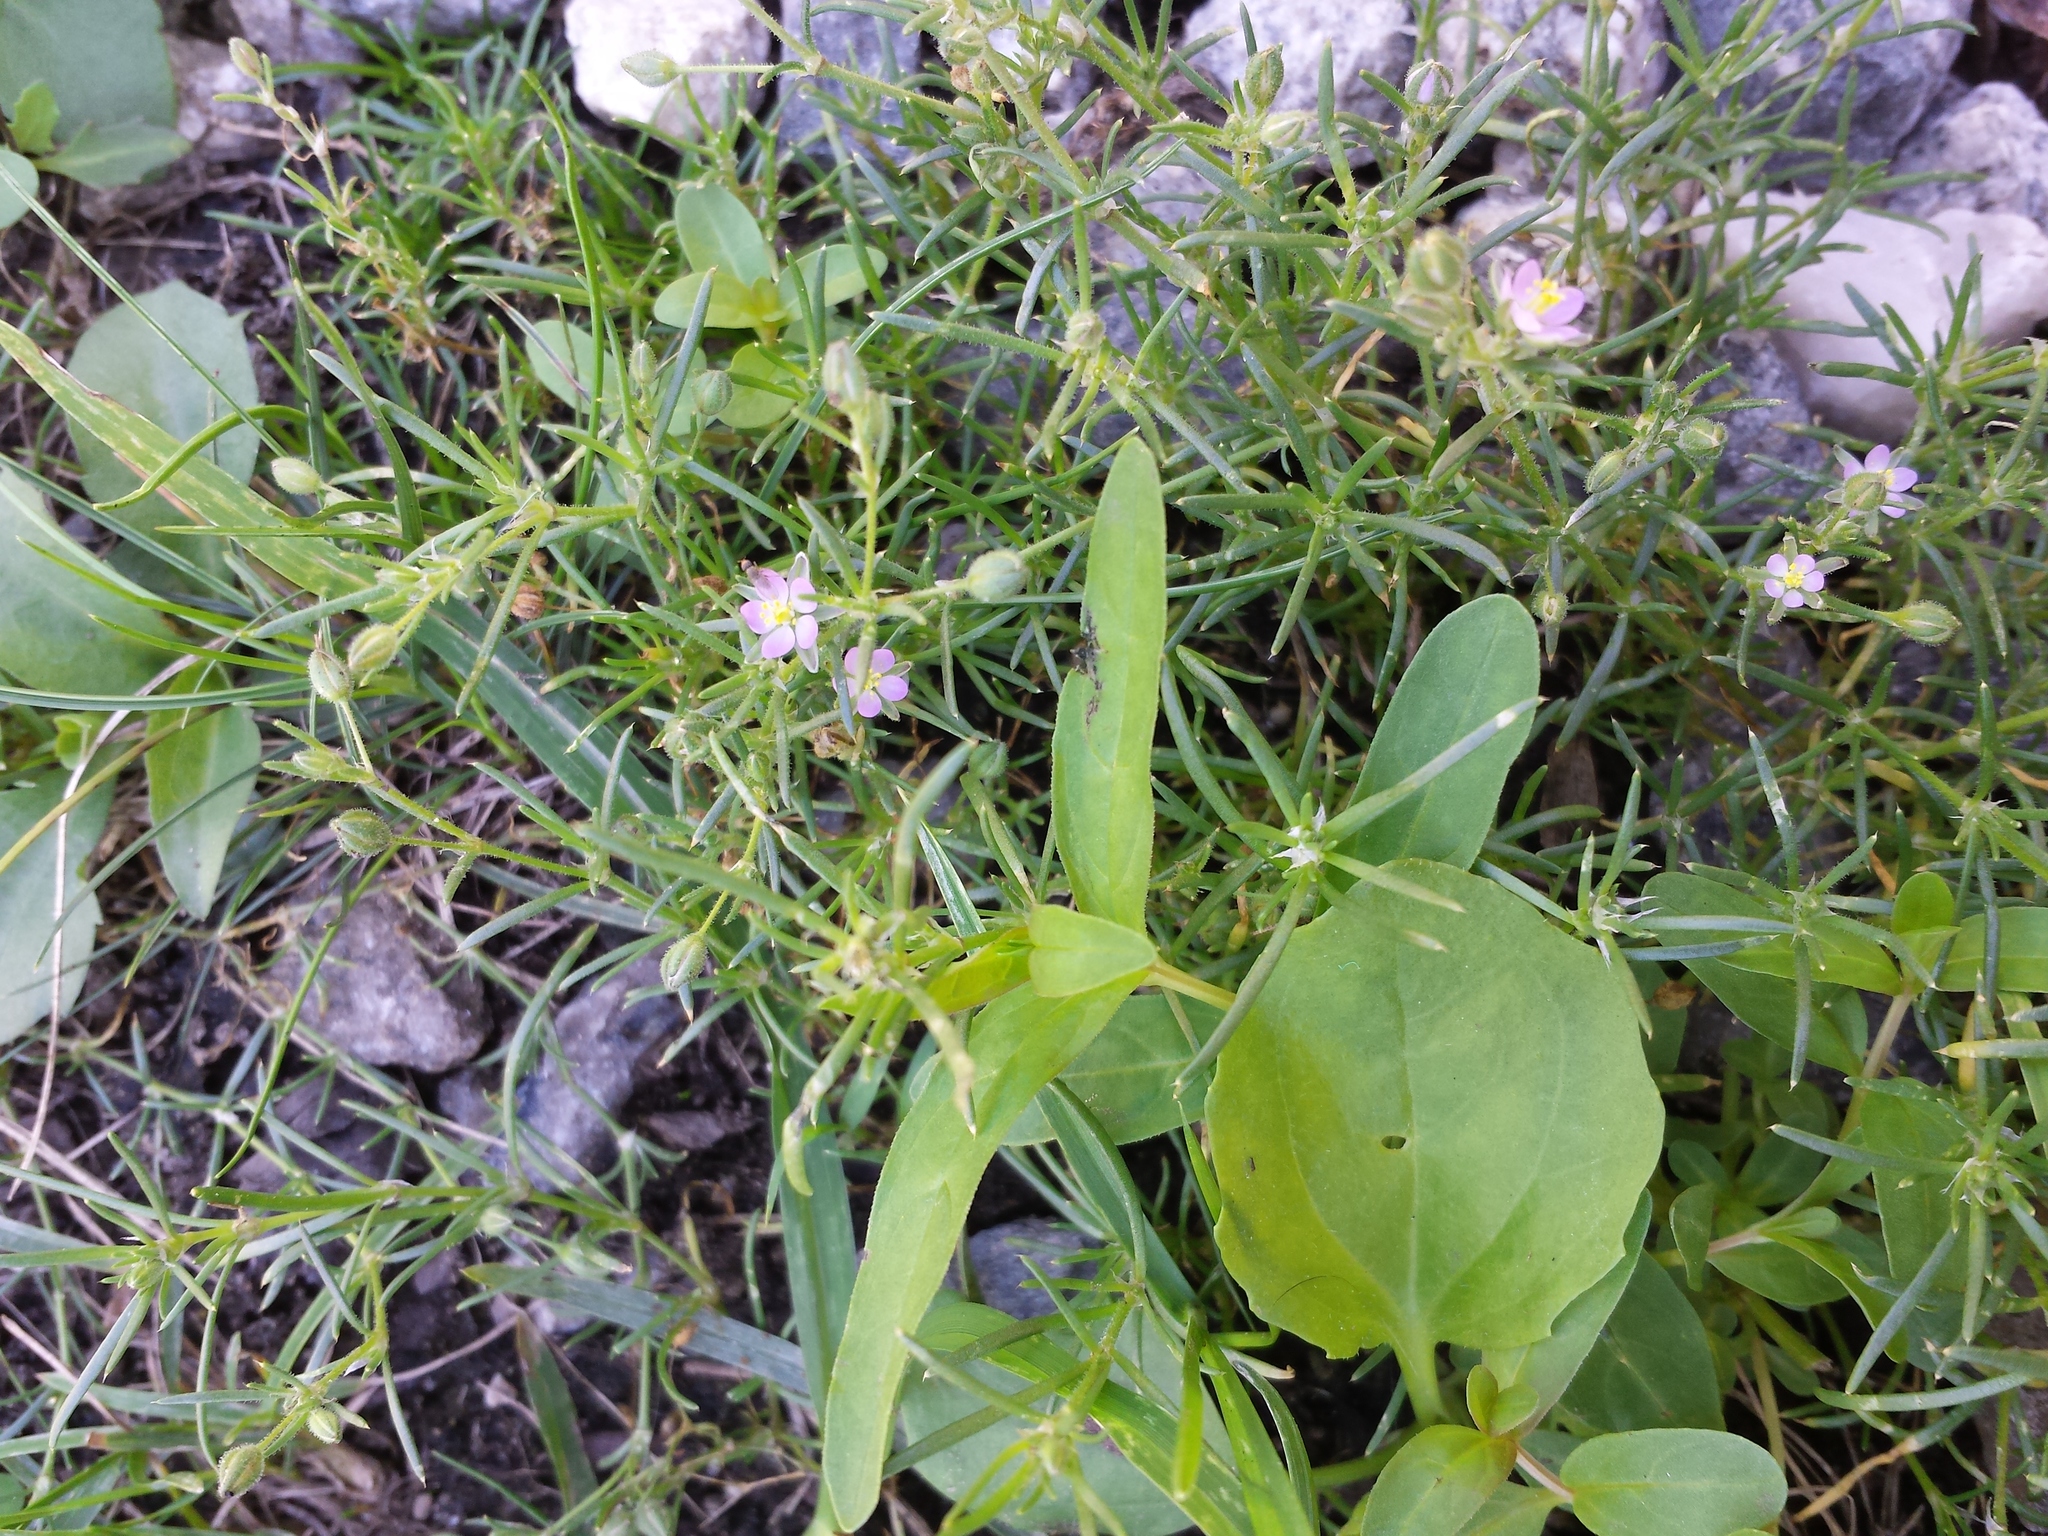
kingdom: Plantae
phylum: Tracheophyta
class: Magnoliopsida
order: Caryophyllales
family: Caryophyllaceae
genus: Spergularia
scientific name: Spergularia rubra
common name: Red sand-spurrey
